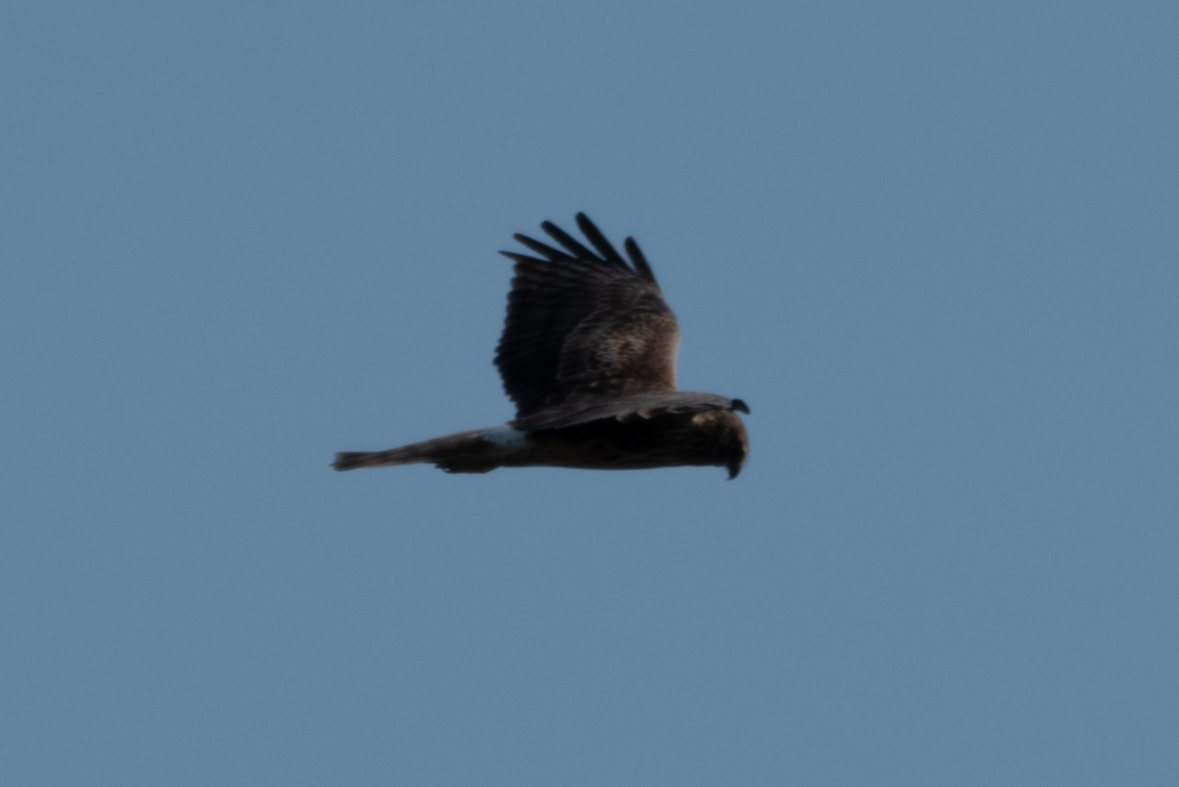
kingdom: Animalia
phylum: Chordata
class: Aves
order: Accipitriformes
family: Accipitridae
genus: Circus
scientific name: Circus cyaneus
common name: Hen harrier
